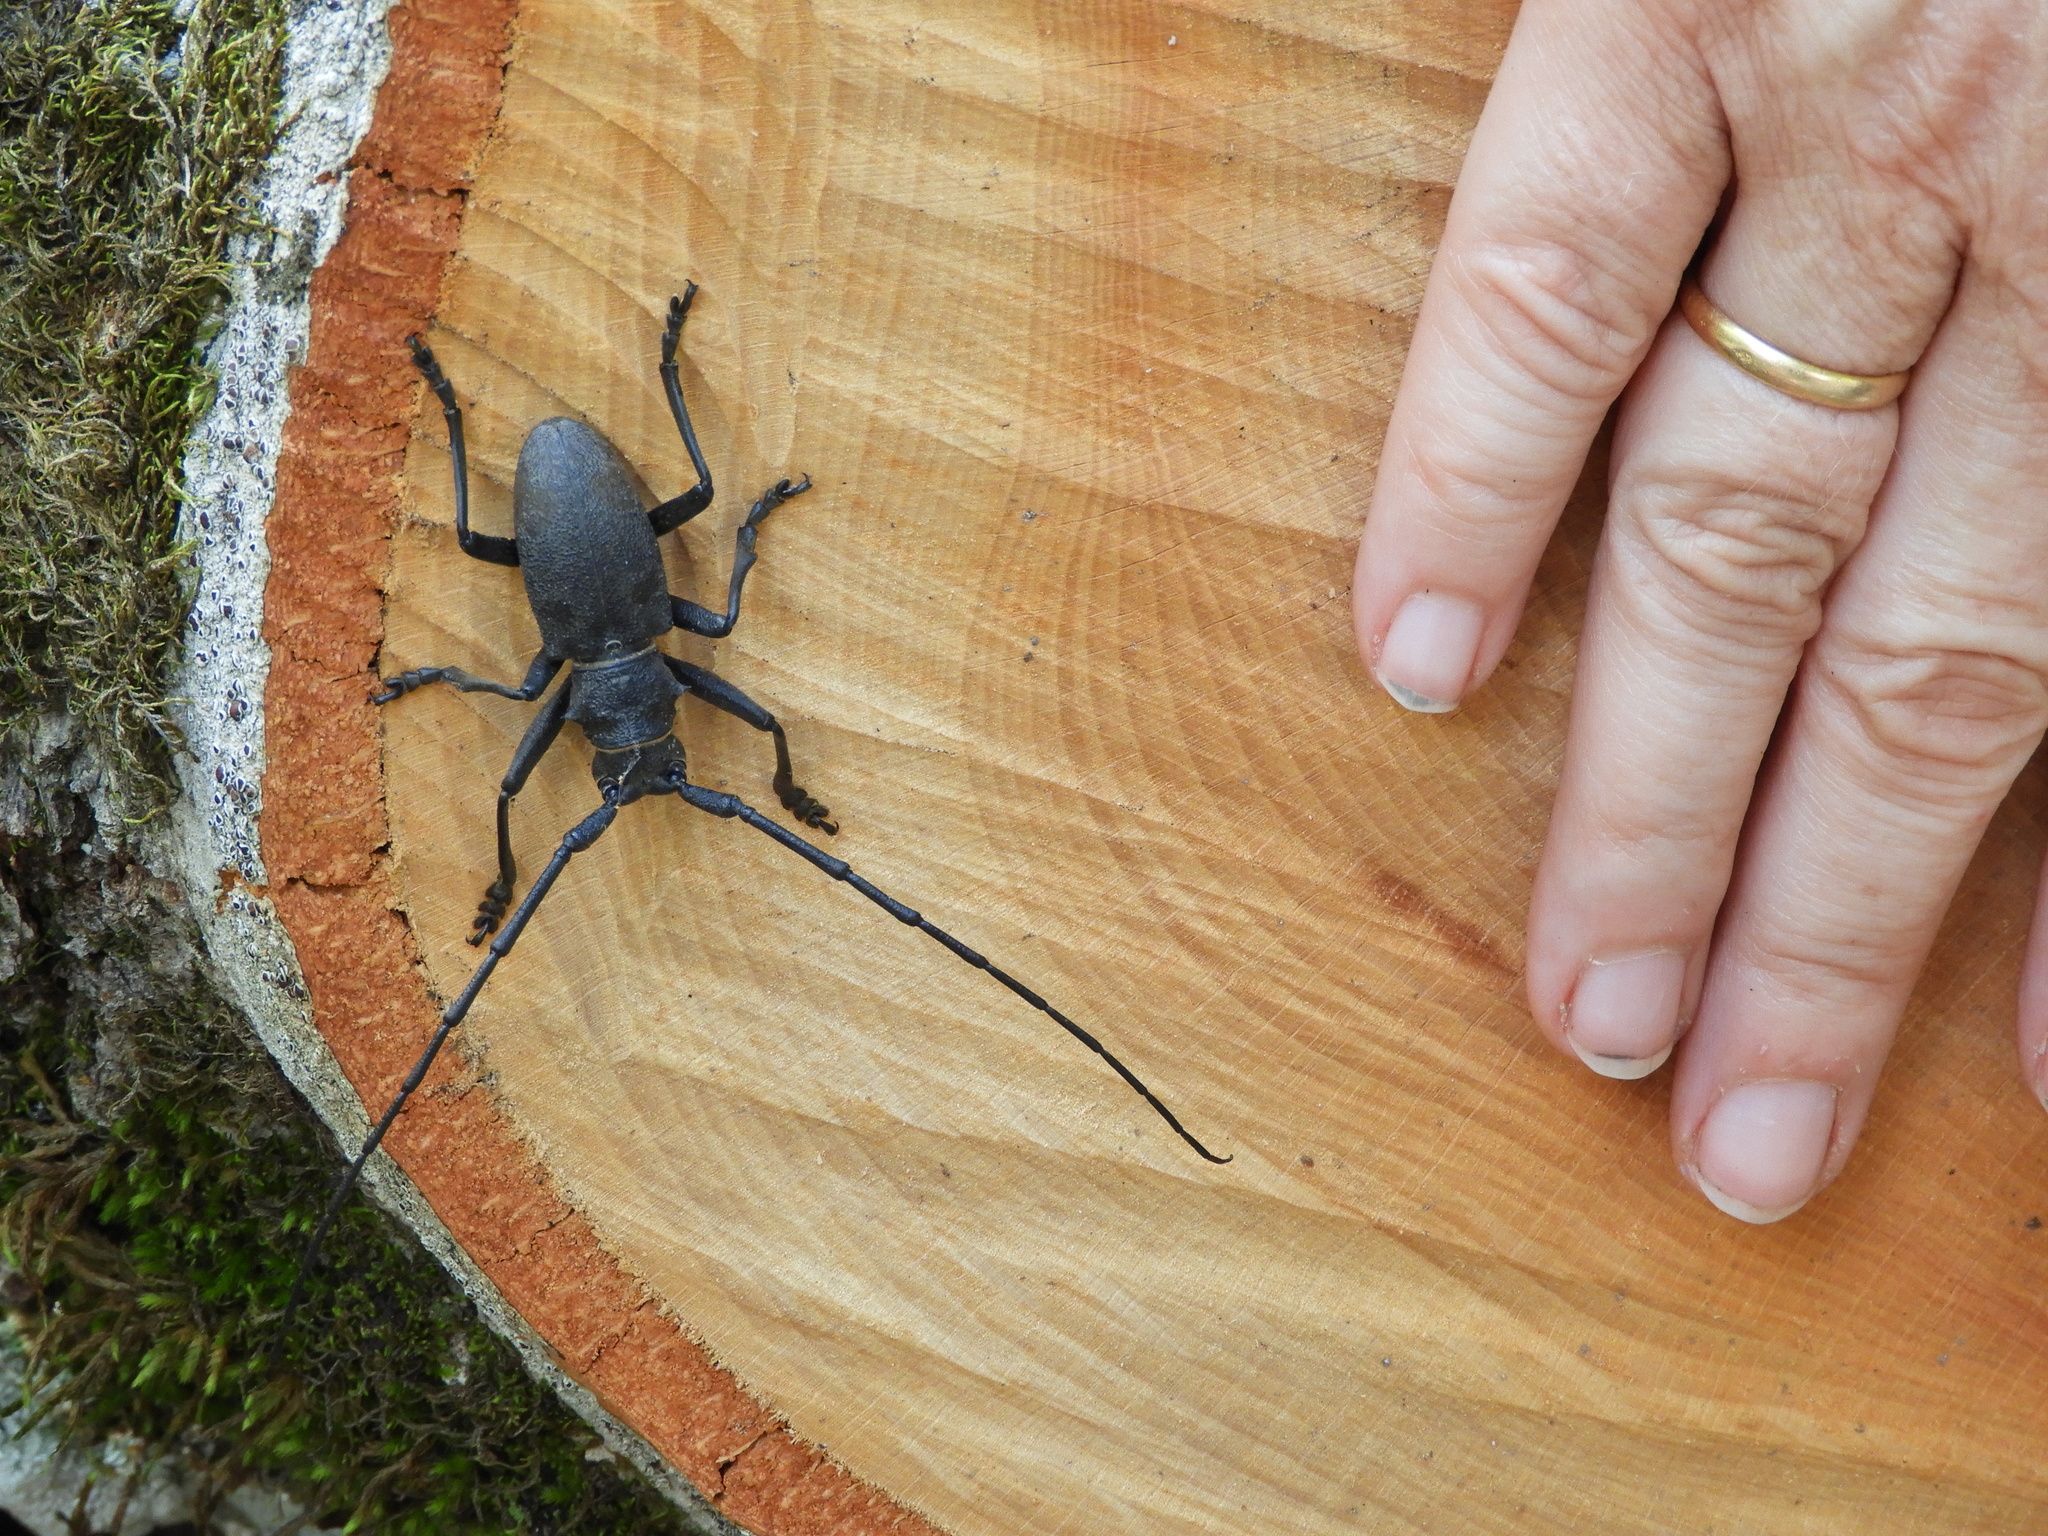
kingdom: Animalia
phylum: Arthropoda
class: Insecta
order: Coleoptera
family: Cerambycidae
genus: Morimus
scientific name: Morimus asper
